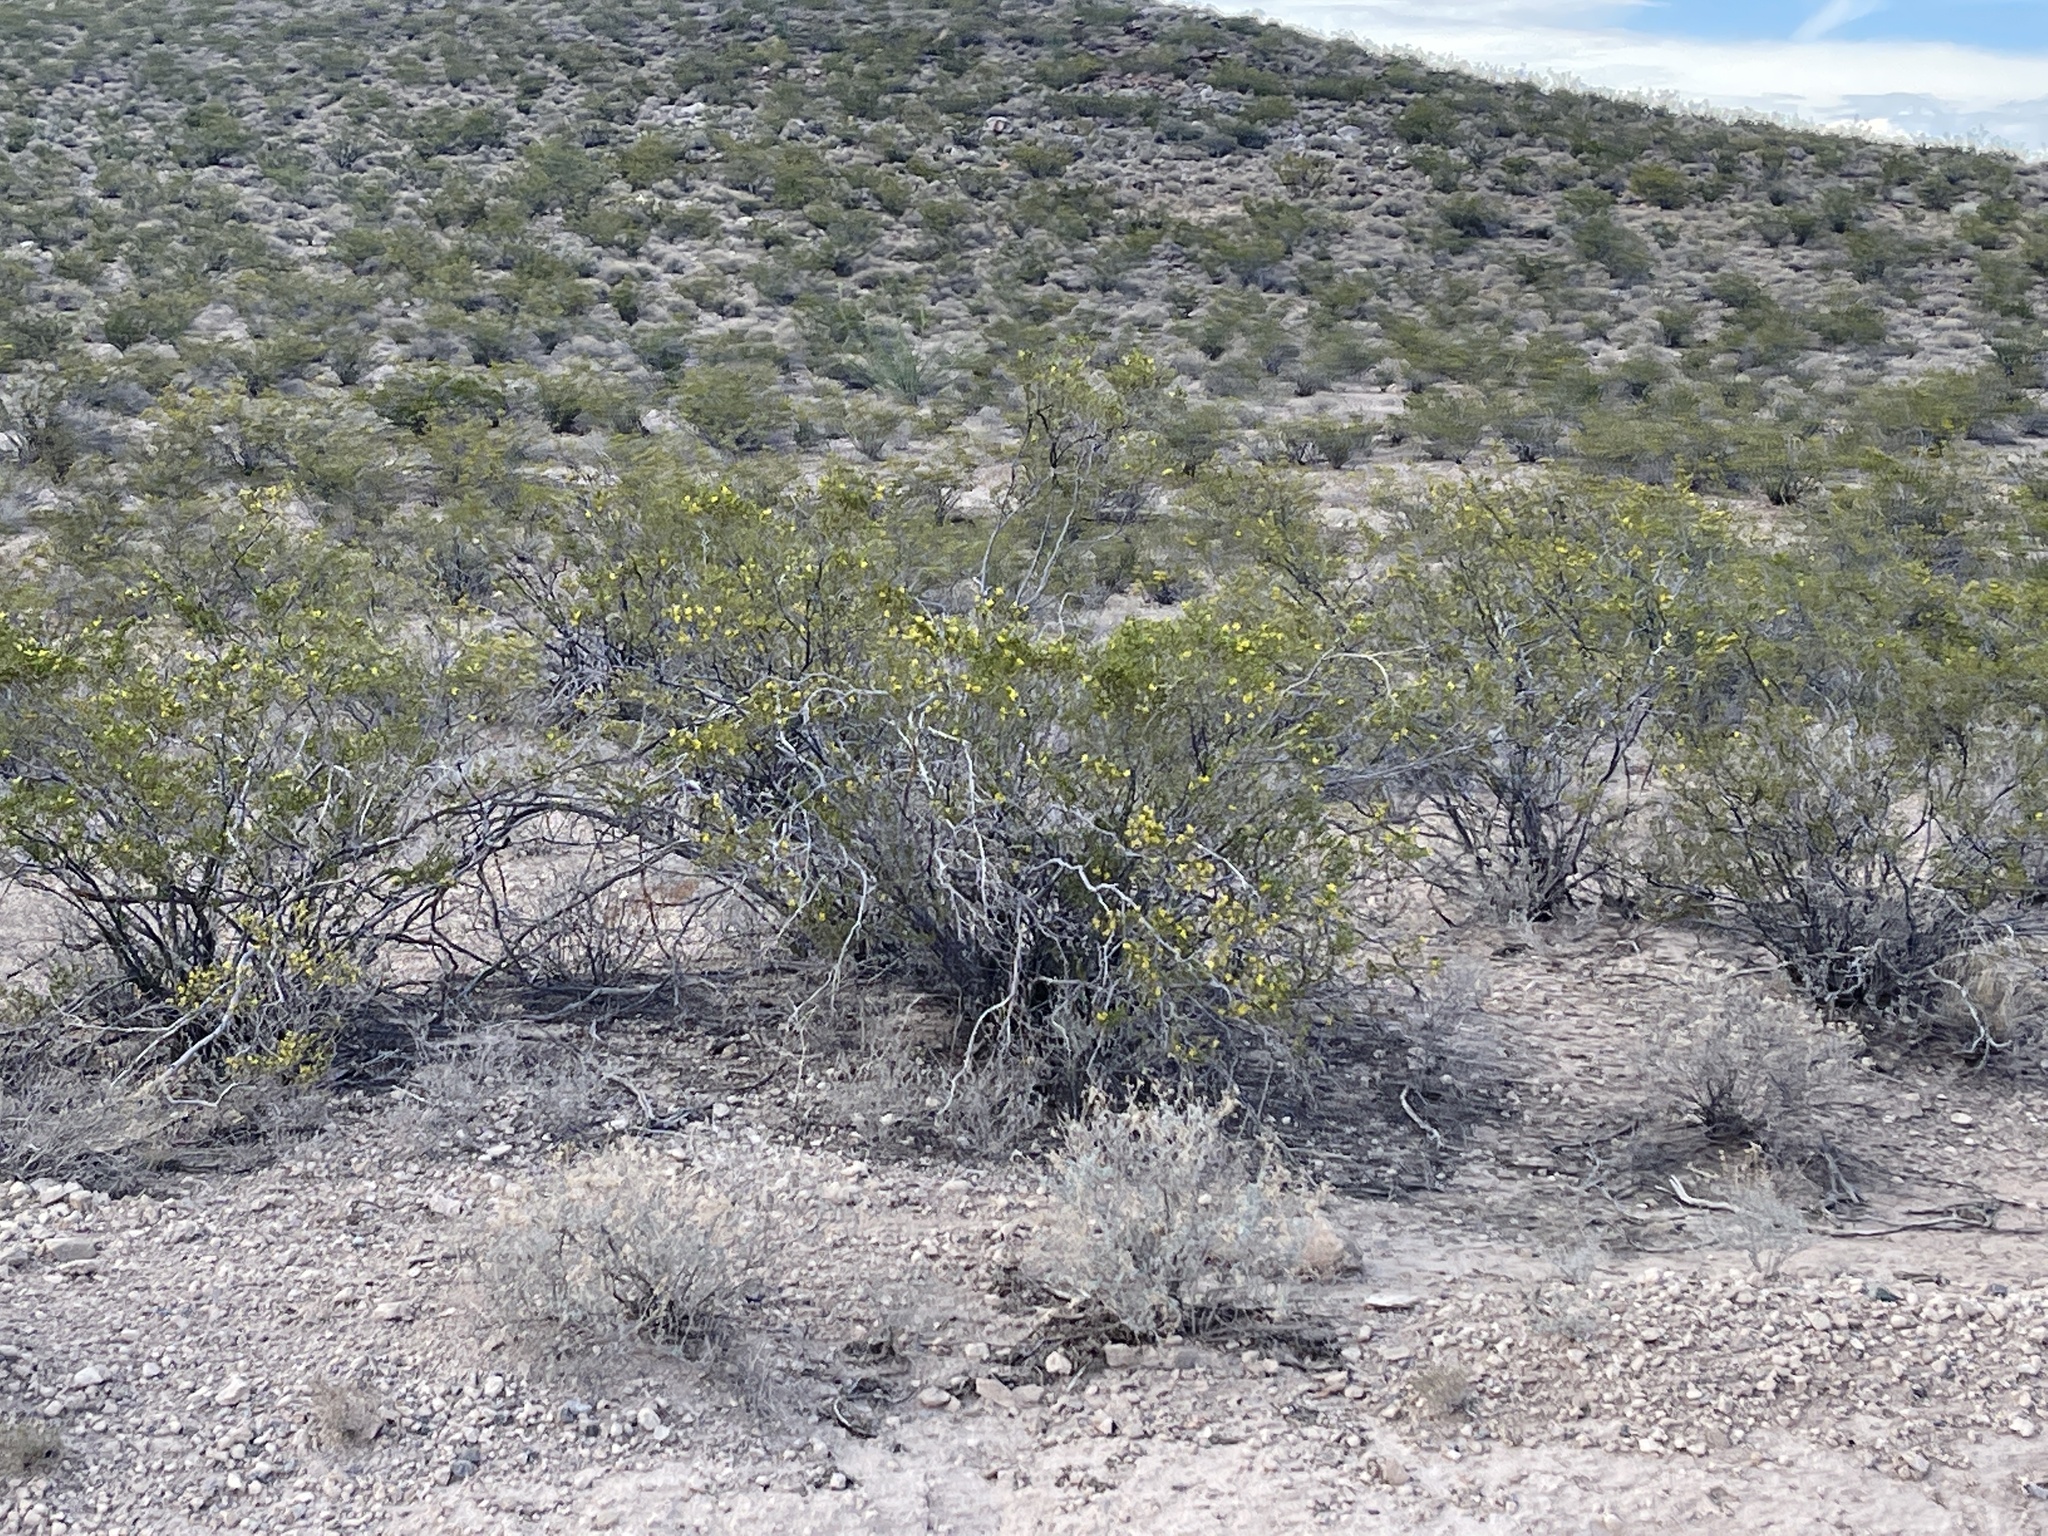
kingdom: Plantae
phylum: Tracheophyta
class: Magnoliopsida
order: Zygophyllales
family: Zygophyllaceae
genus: Larrea
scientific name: Larrea tridentata
